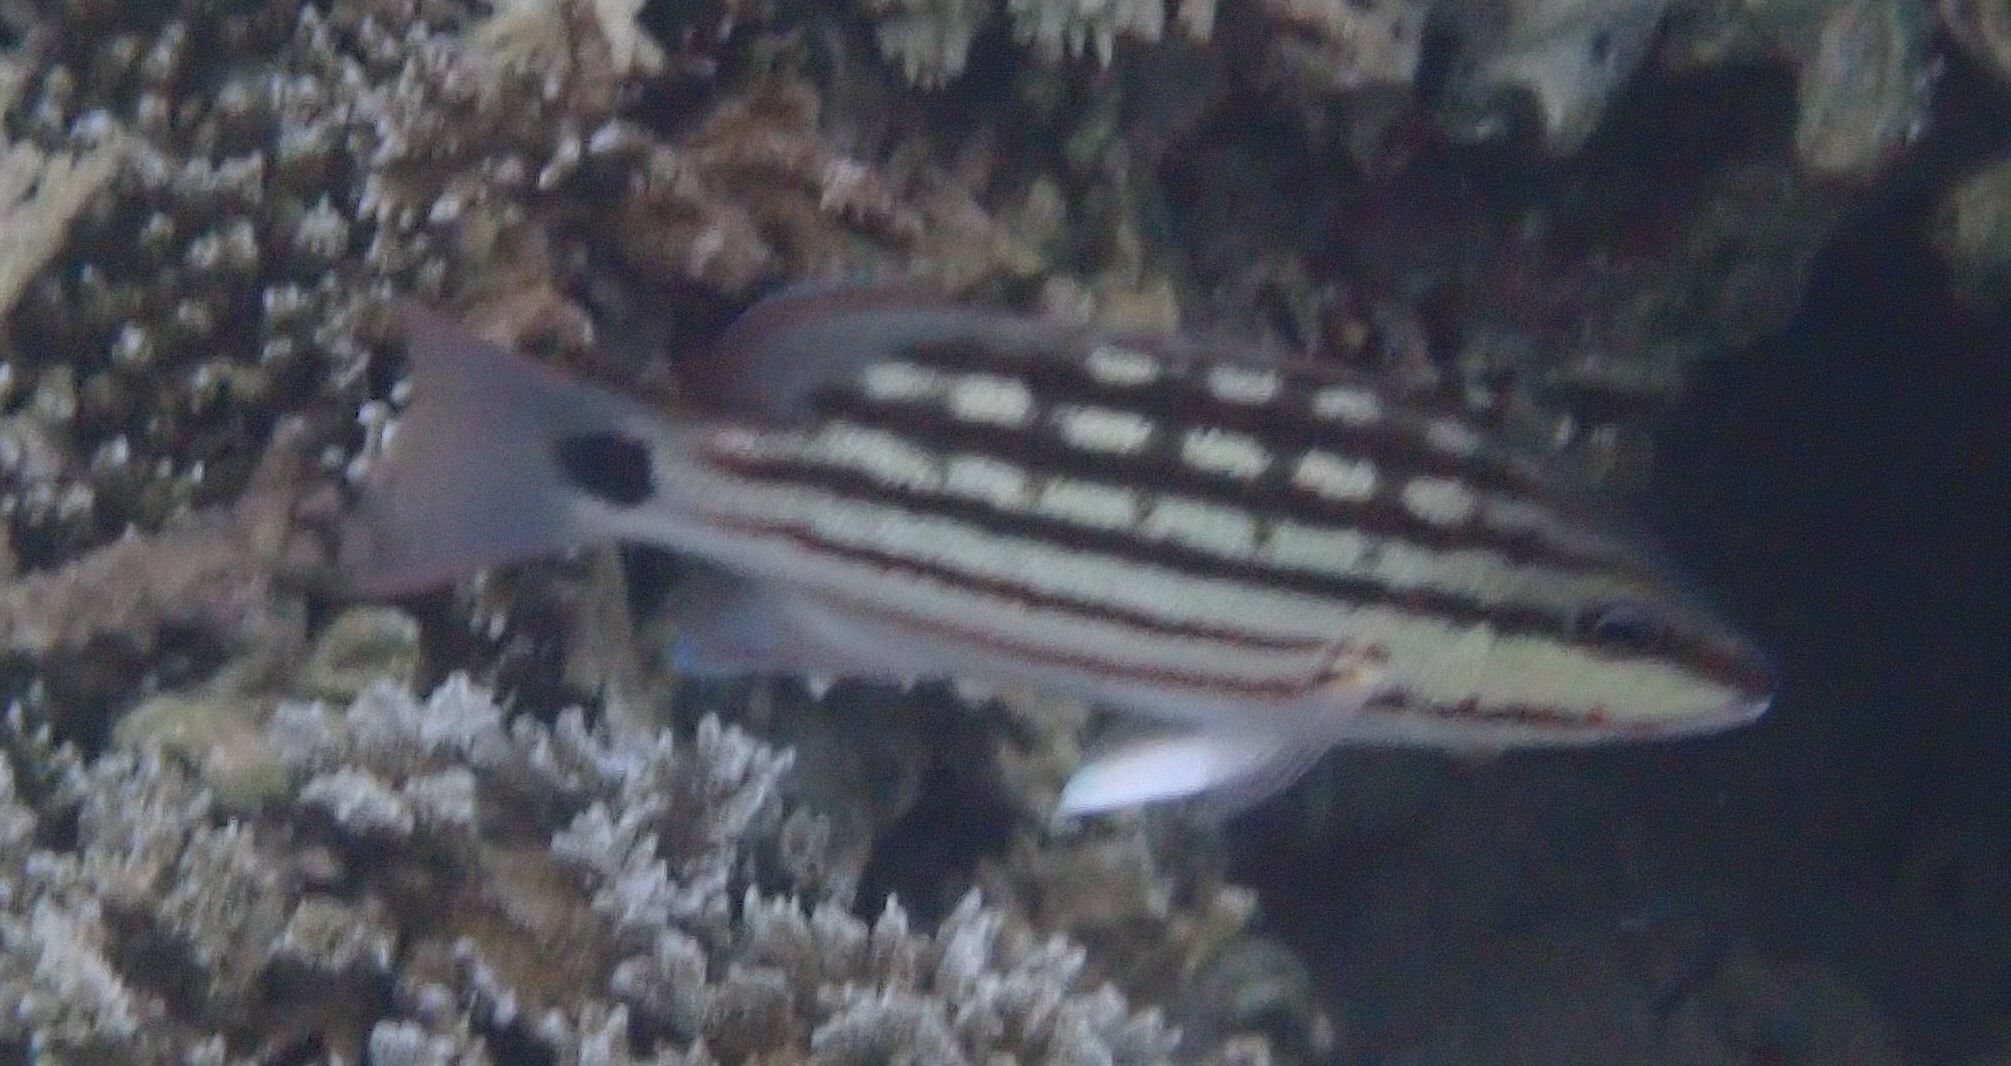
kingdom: Animalia
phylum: Chordata
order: Perciformes
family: Lutjanidae
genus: Lutjanus
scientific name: Lutjanus decussatus
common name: Checkered snapper
